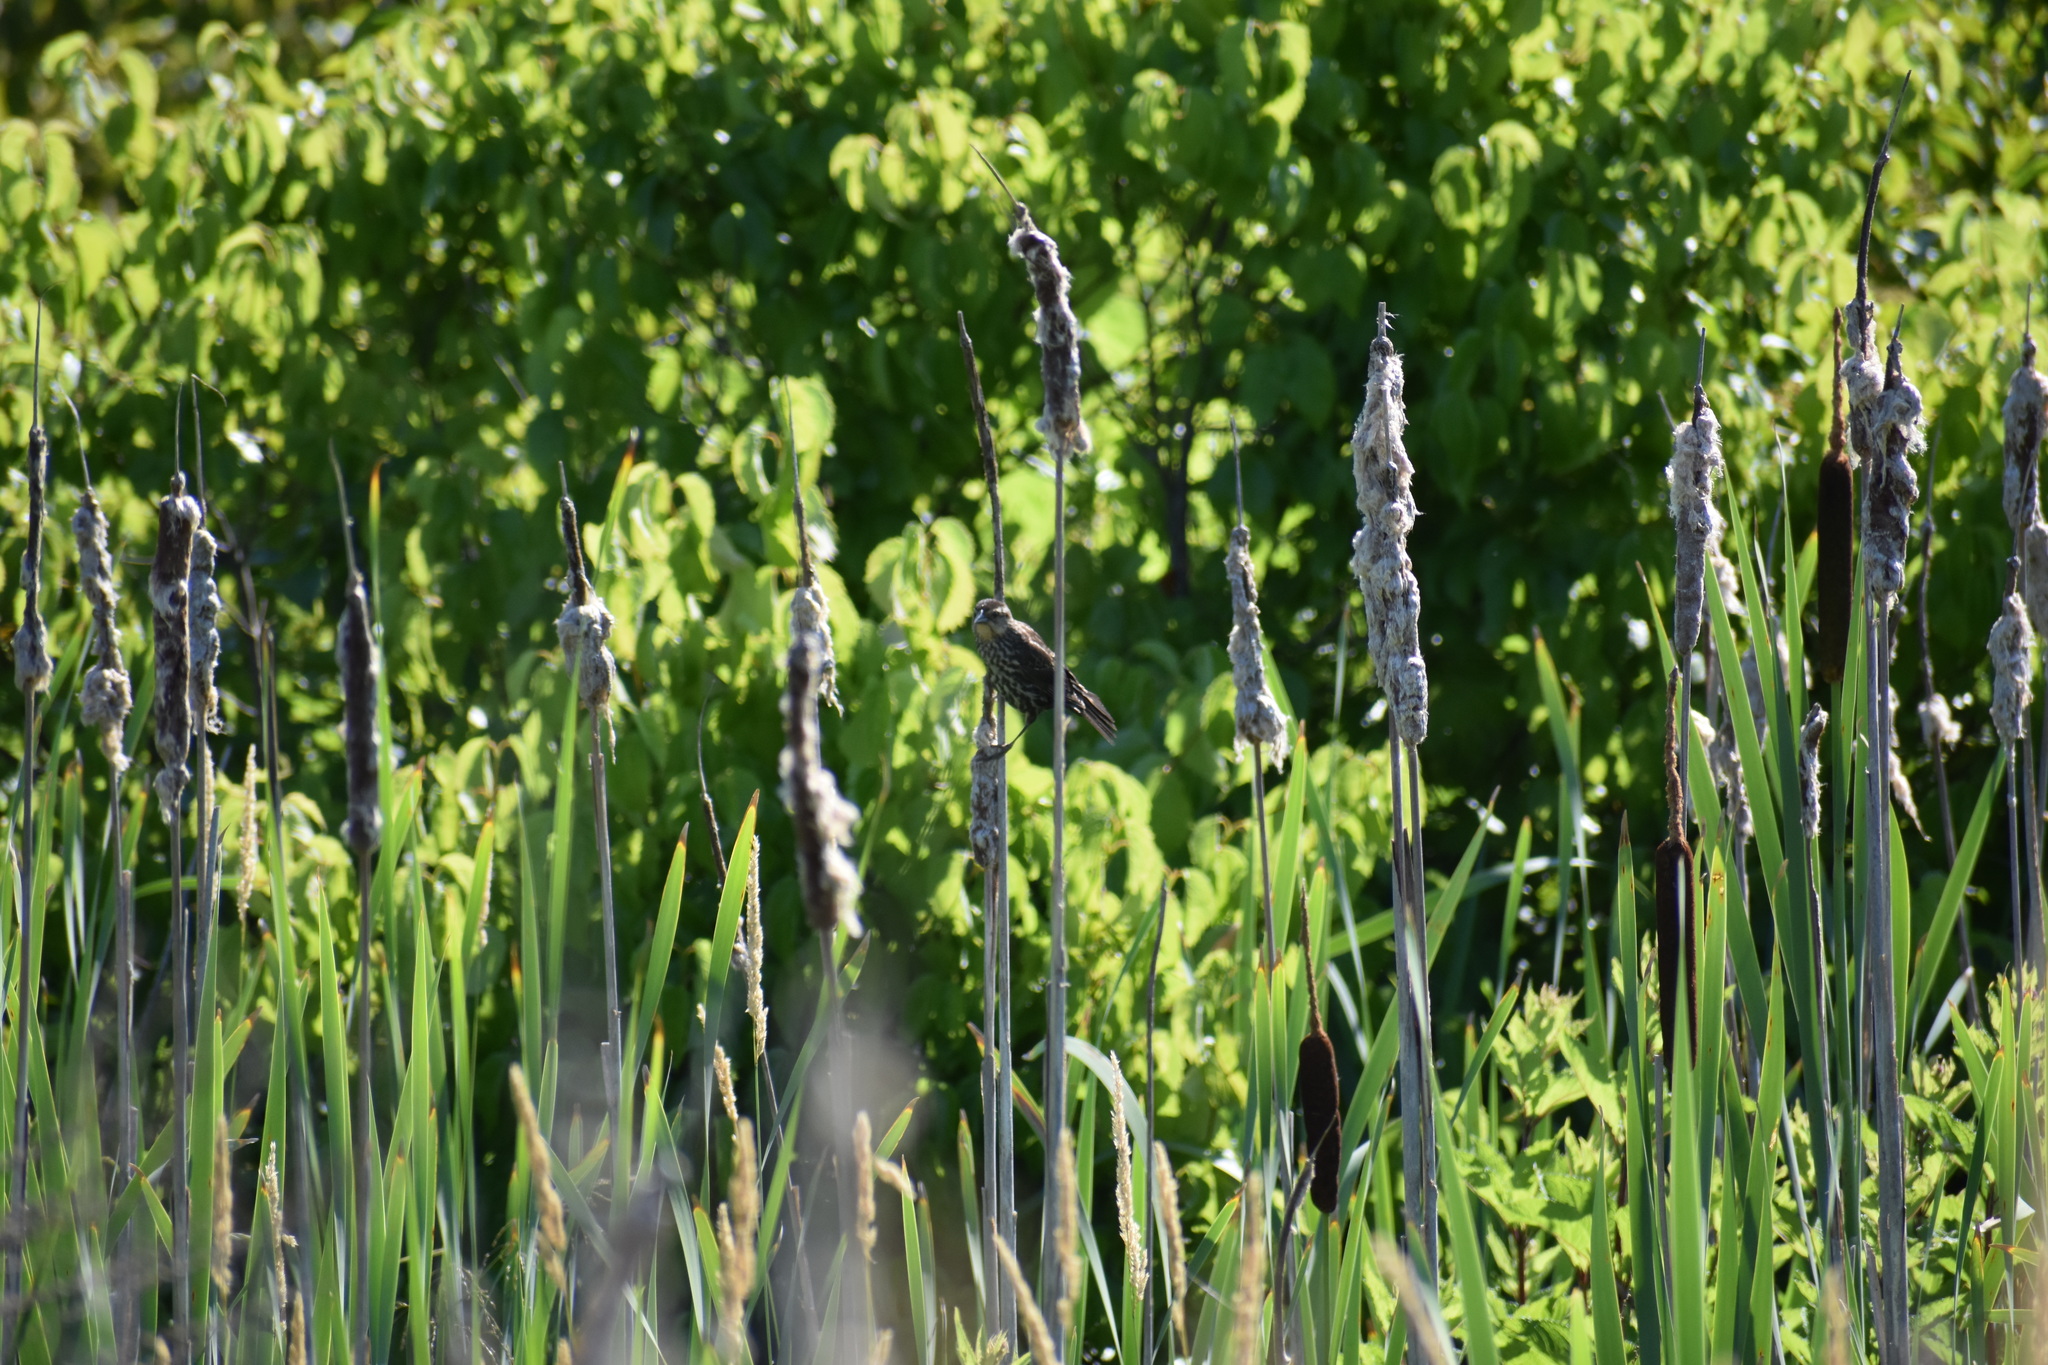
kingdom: Animalia
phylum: Chordata
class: Aves
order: Passeriformes
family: Icteridae
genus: Agelaius
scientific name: Agelaius phoeniceus
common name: Red-winged blackbird
